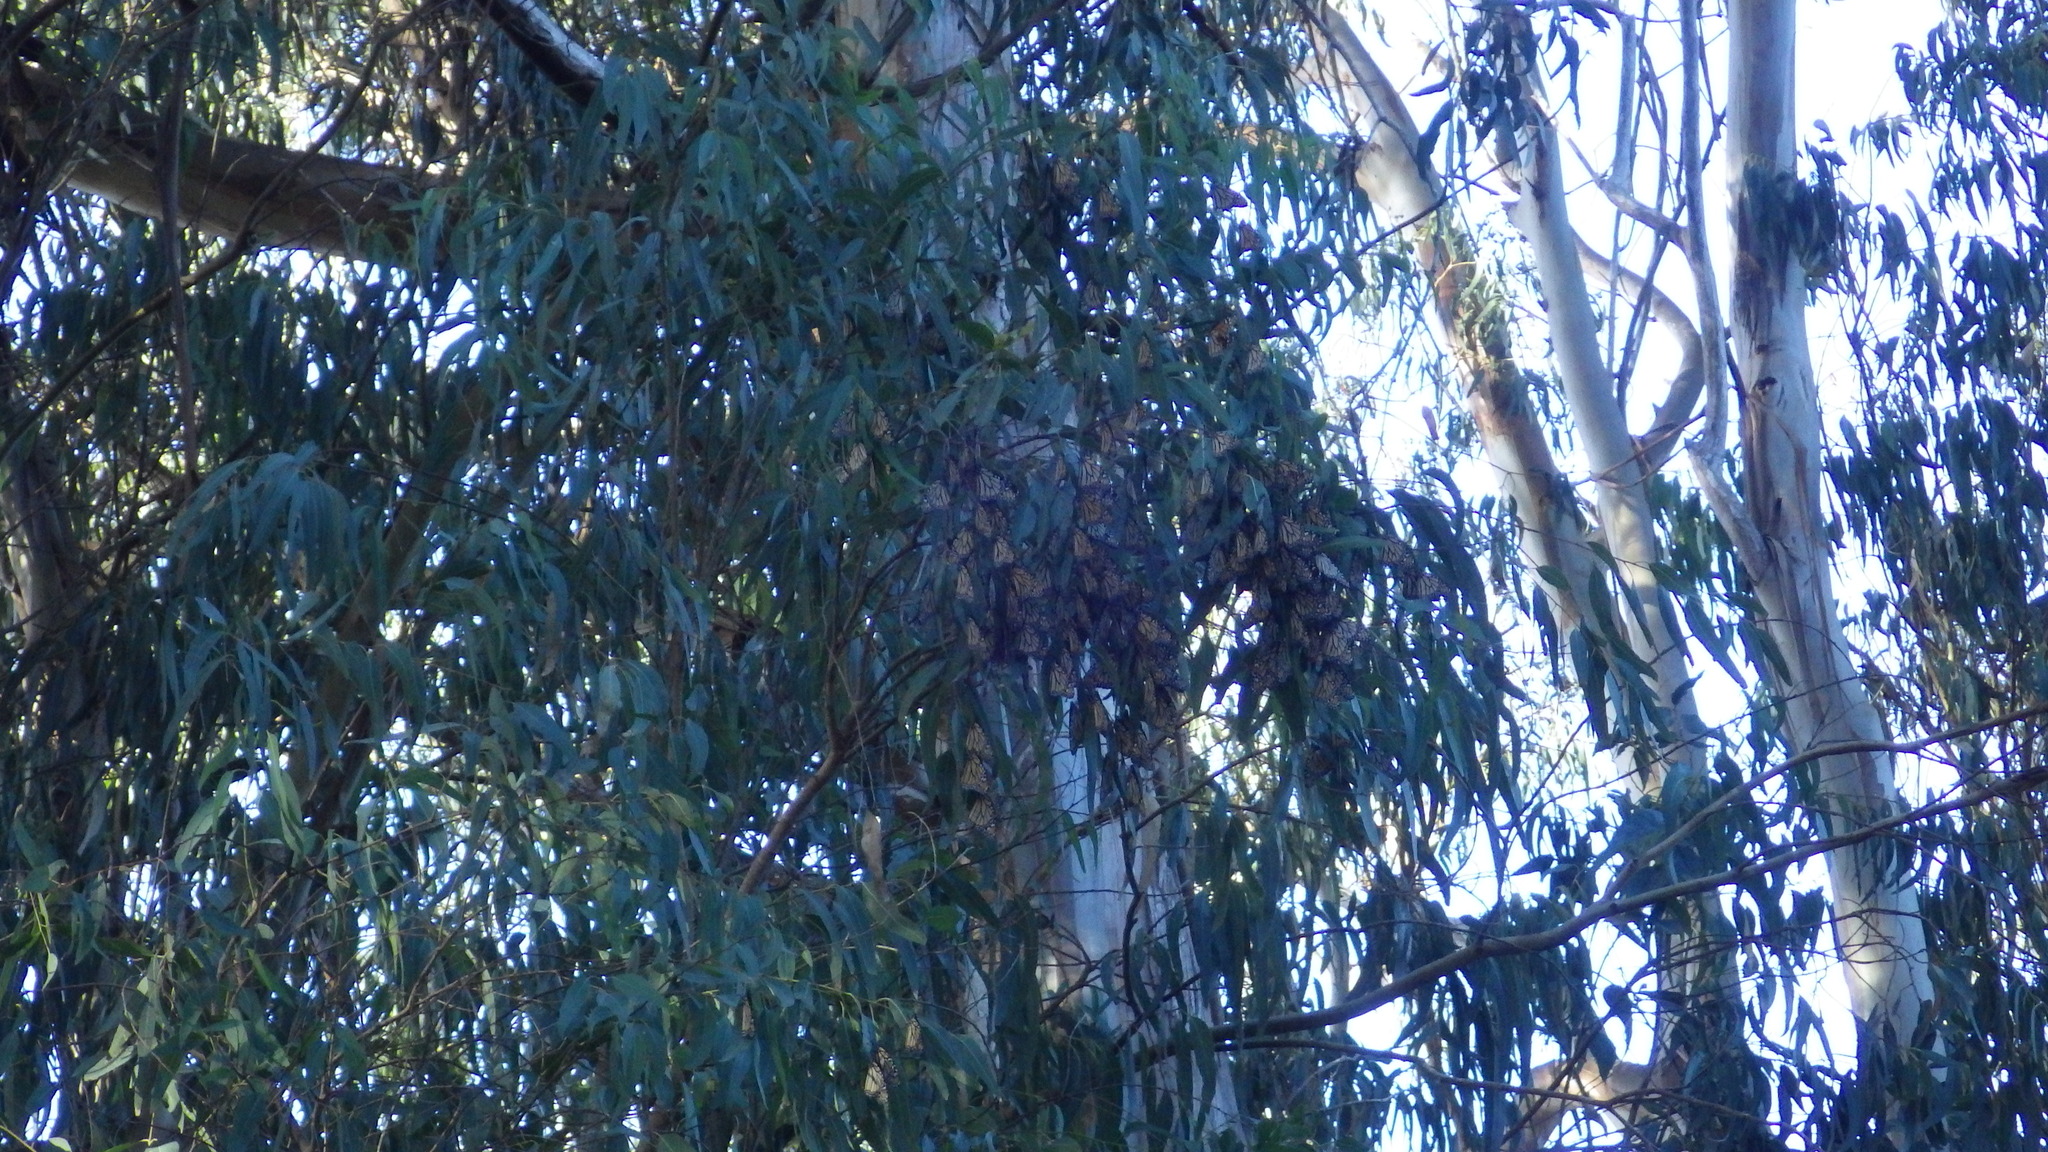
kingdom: Animalia
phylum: Arthropoda
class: Insecta
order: Lepidoptera
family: Nymphalidae
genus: Danaus
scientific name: Danaus plexippus
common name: Monarch
